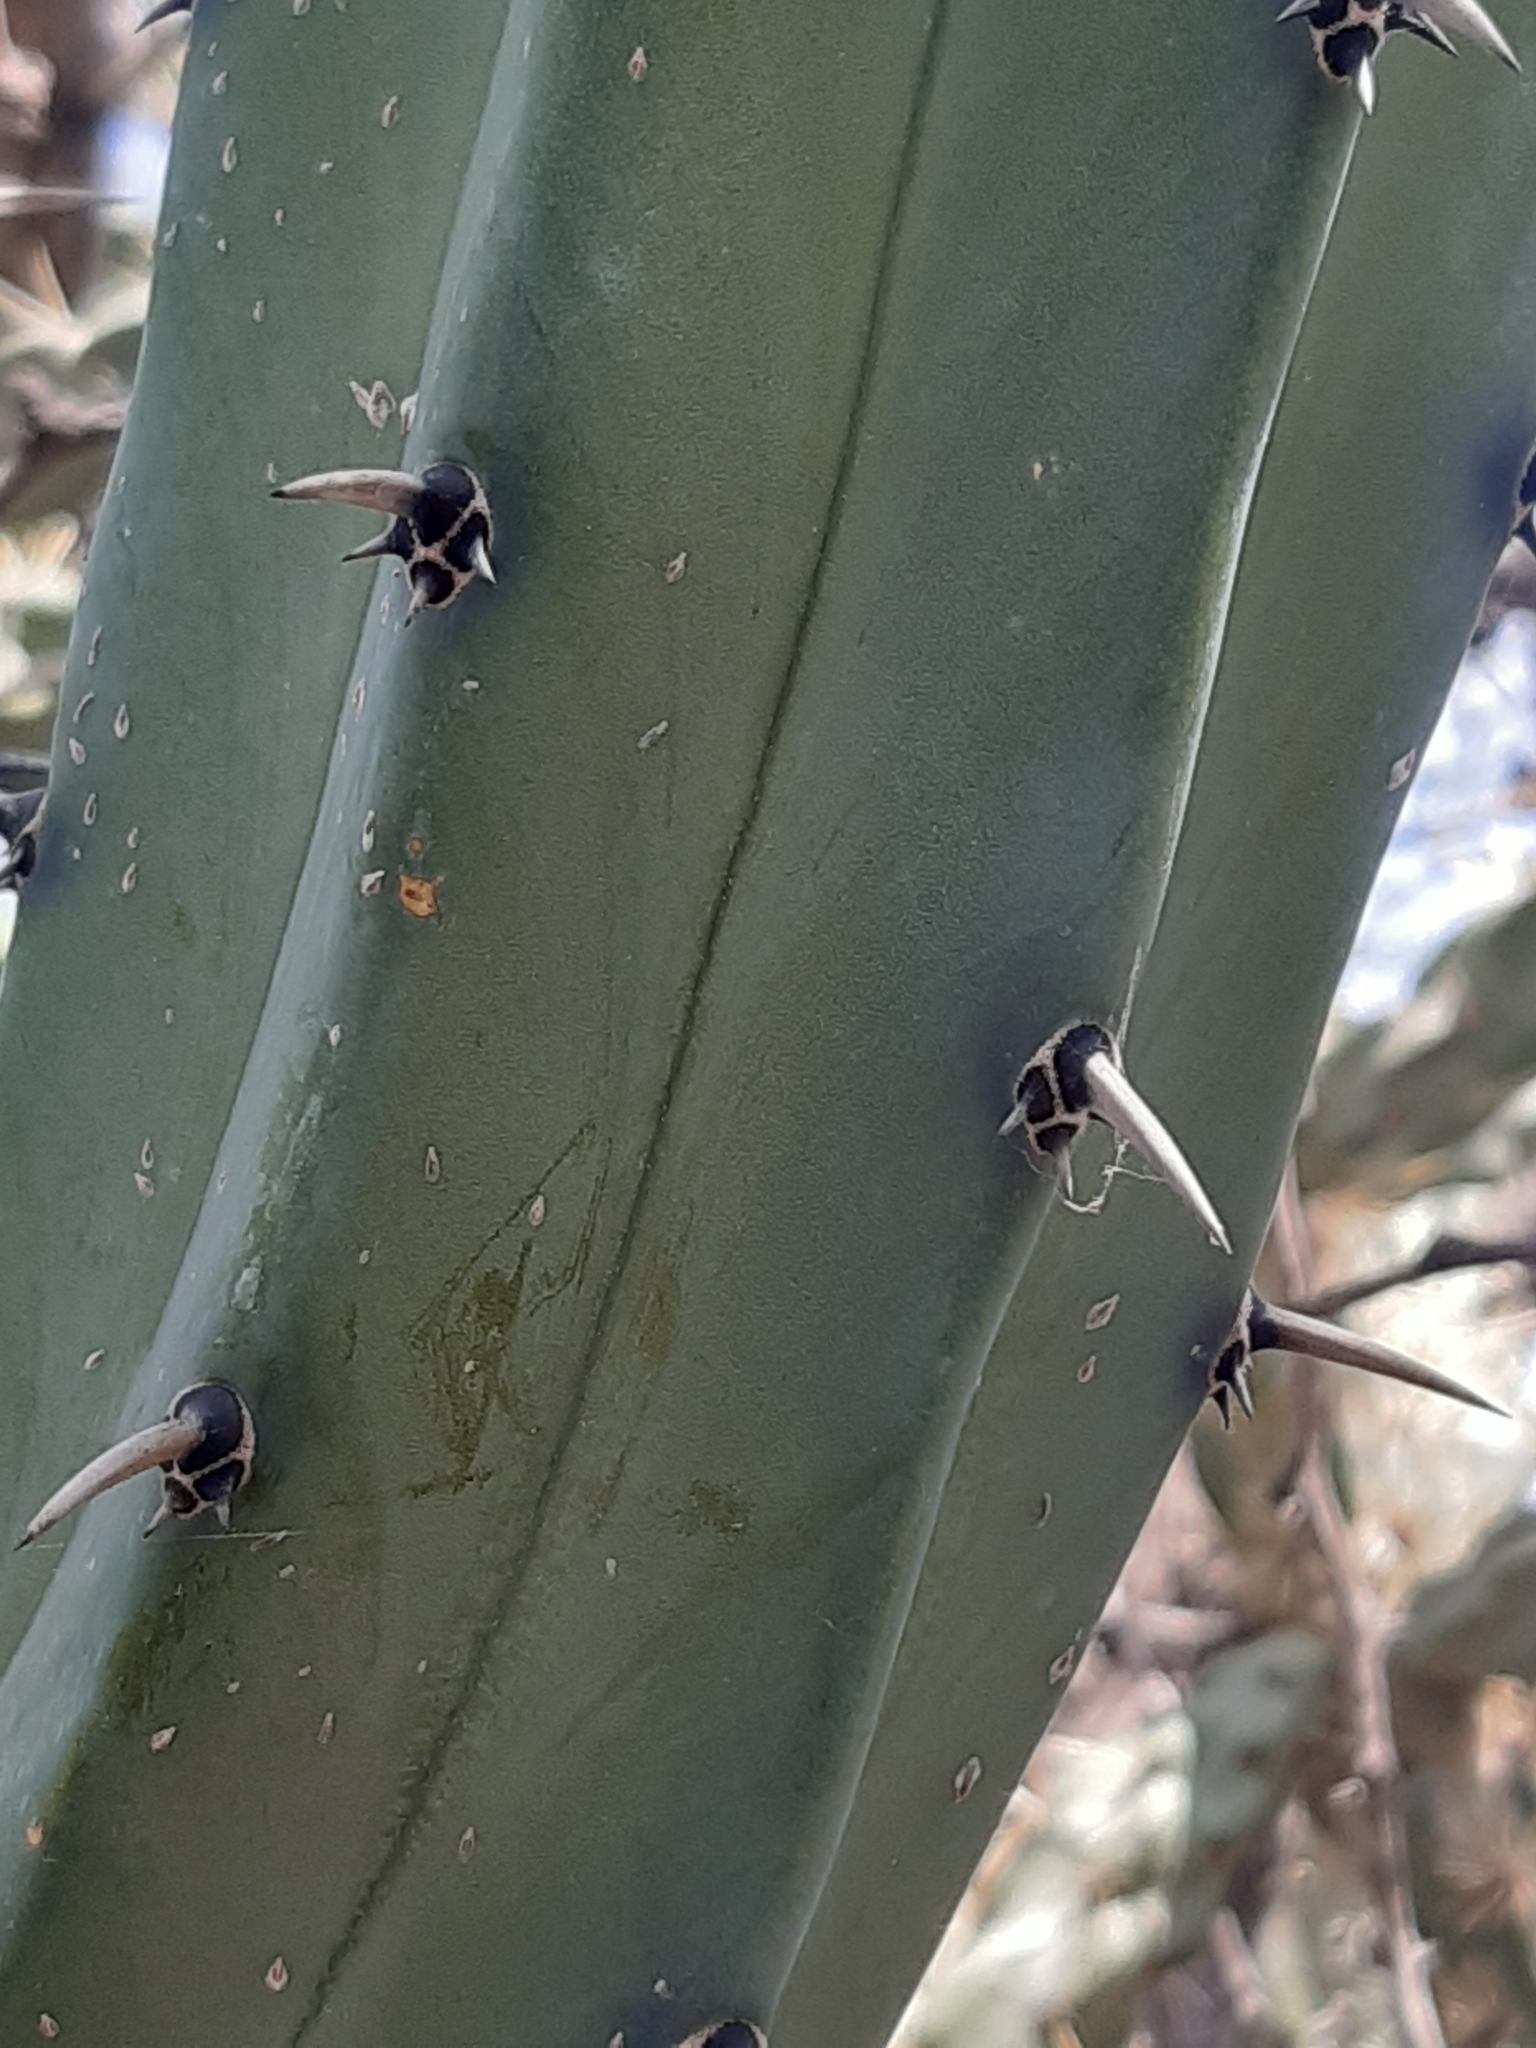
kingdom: Plantae
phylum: Tracheophyta
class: Magnoliopsida
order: Caryophyllales
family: Cactaceae
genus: Myrtillocactus
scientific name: Myrtillocactus geometrizans
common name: Bilberry cactus
